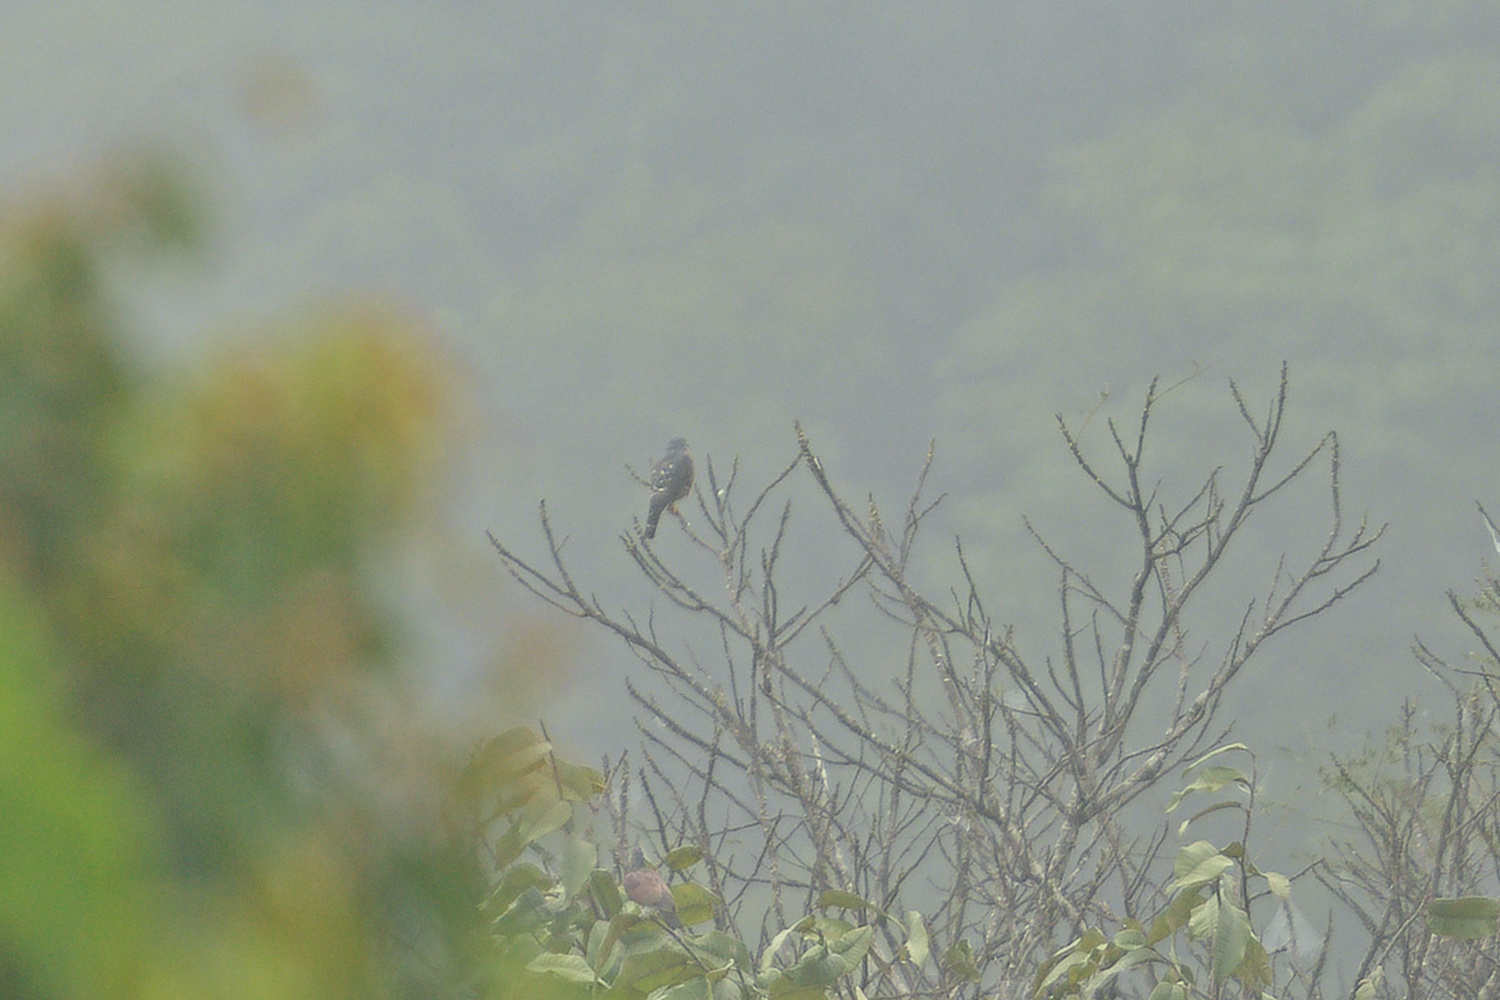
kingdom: Animalia
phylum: Chordata
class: Aves
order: Accipitriformes
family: Accipitridae
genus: Harpagus
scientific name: Harpagus bidentatus
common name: Double-toothed kite
